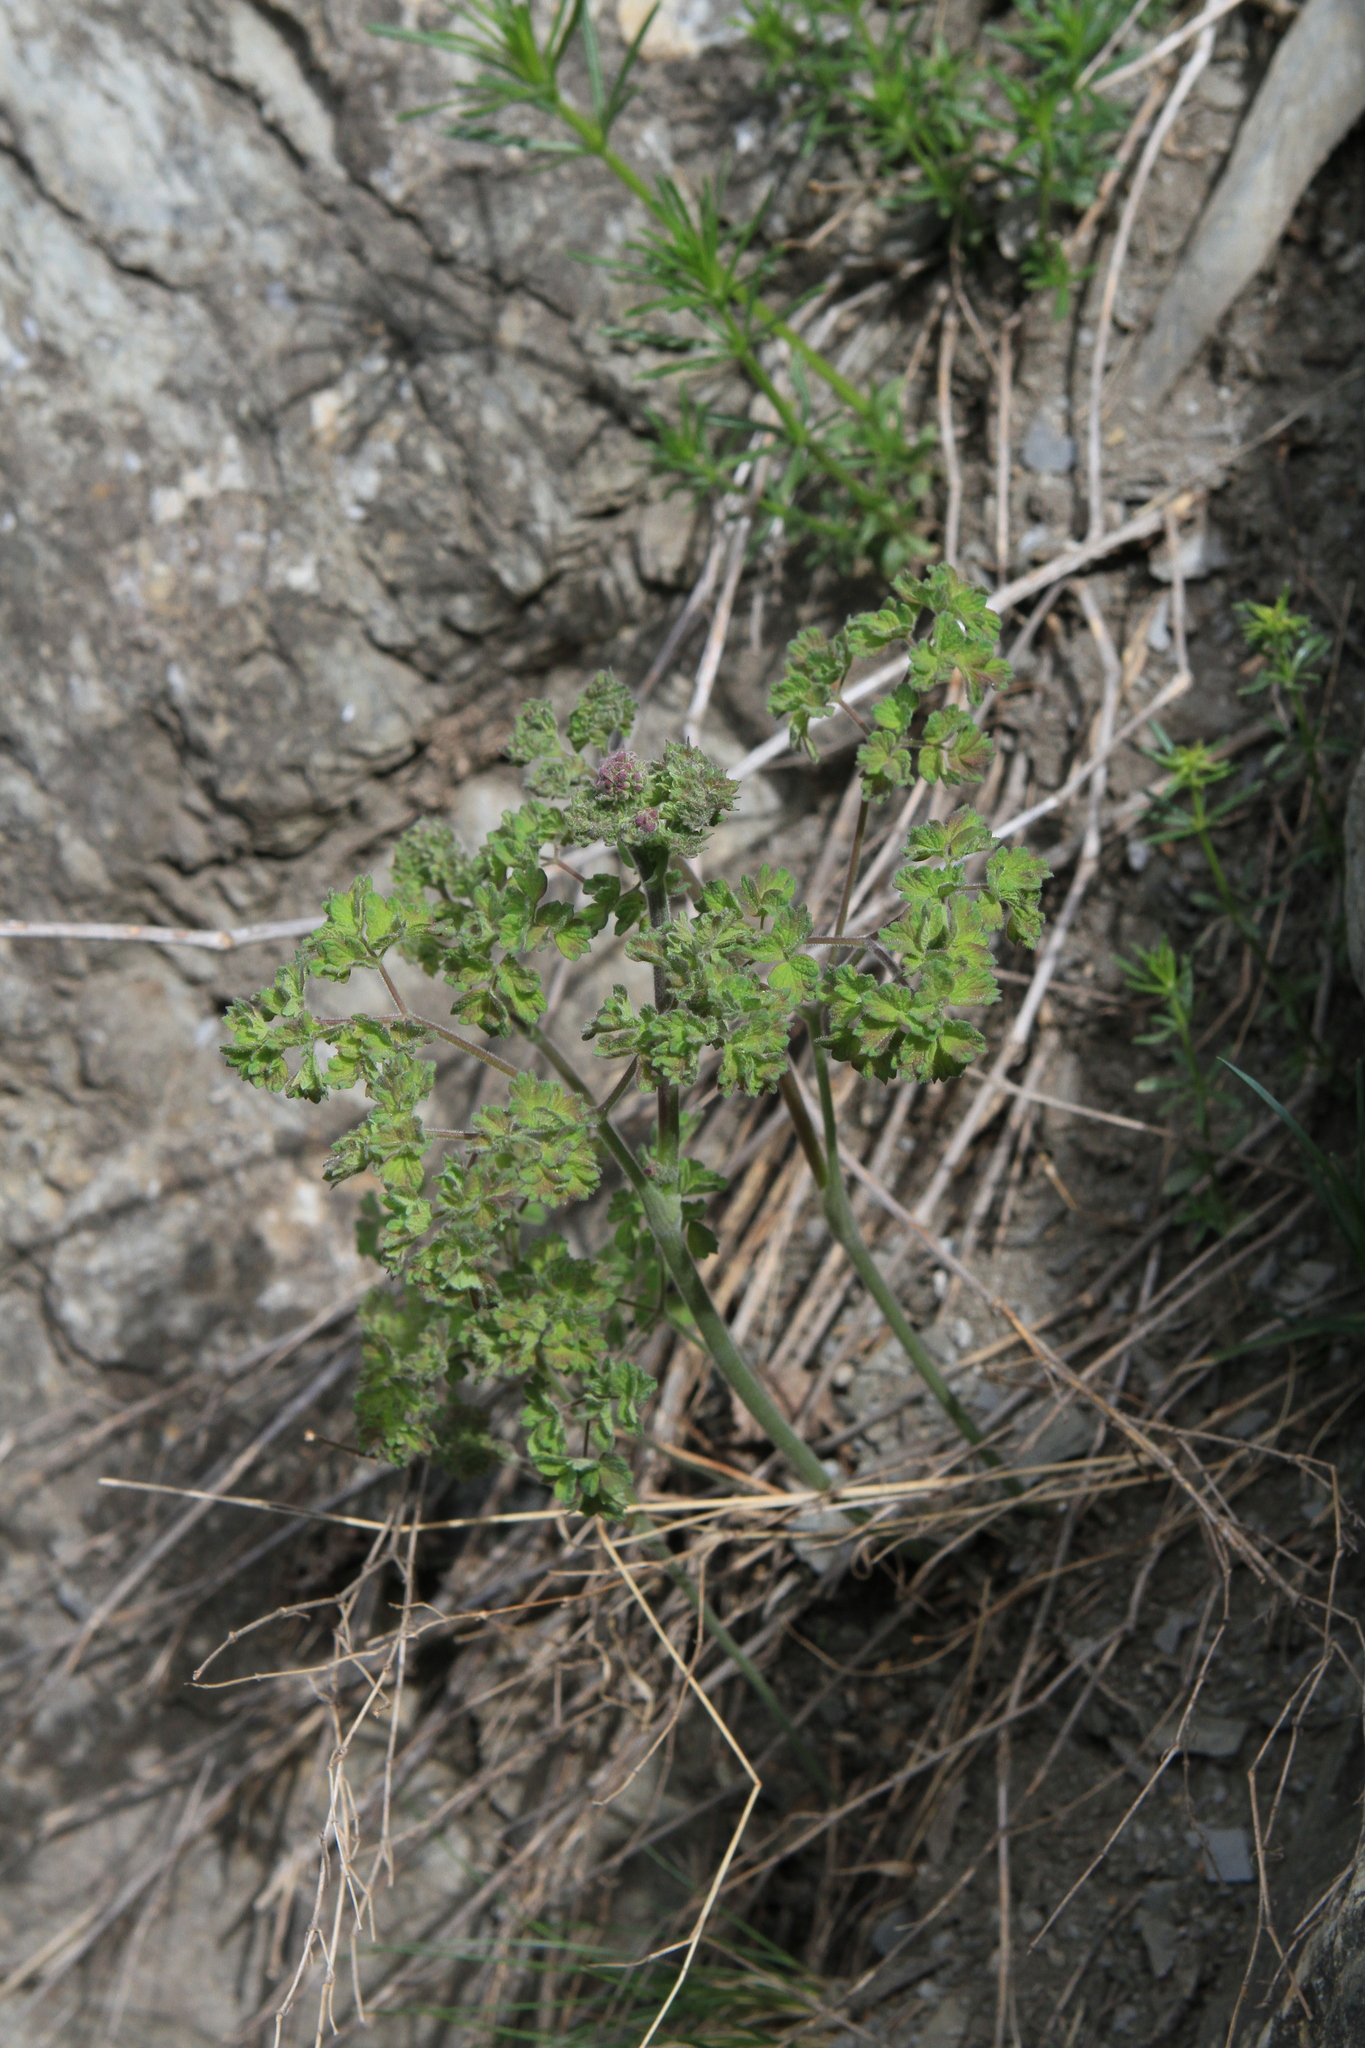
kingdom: Plantae
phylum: Tracheophyta
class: Magnoliopsida
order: Ranunculales
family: Ranunculaceae
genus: Thalictrum
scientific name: Thalictrum foetidum
